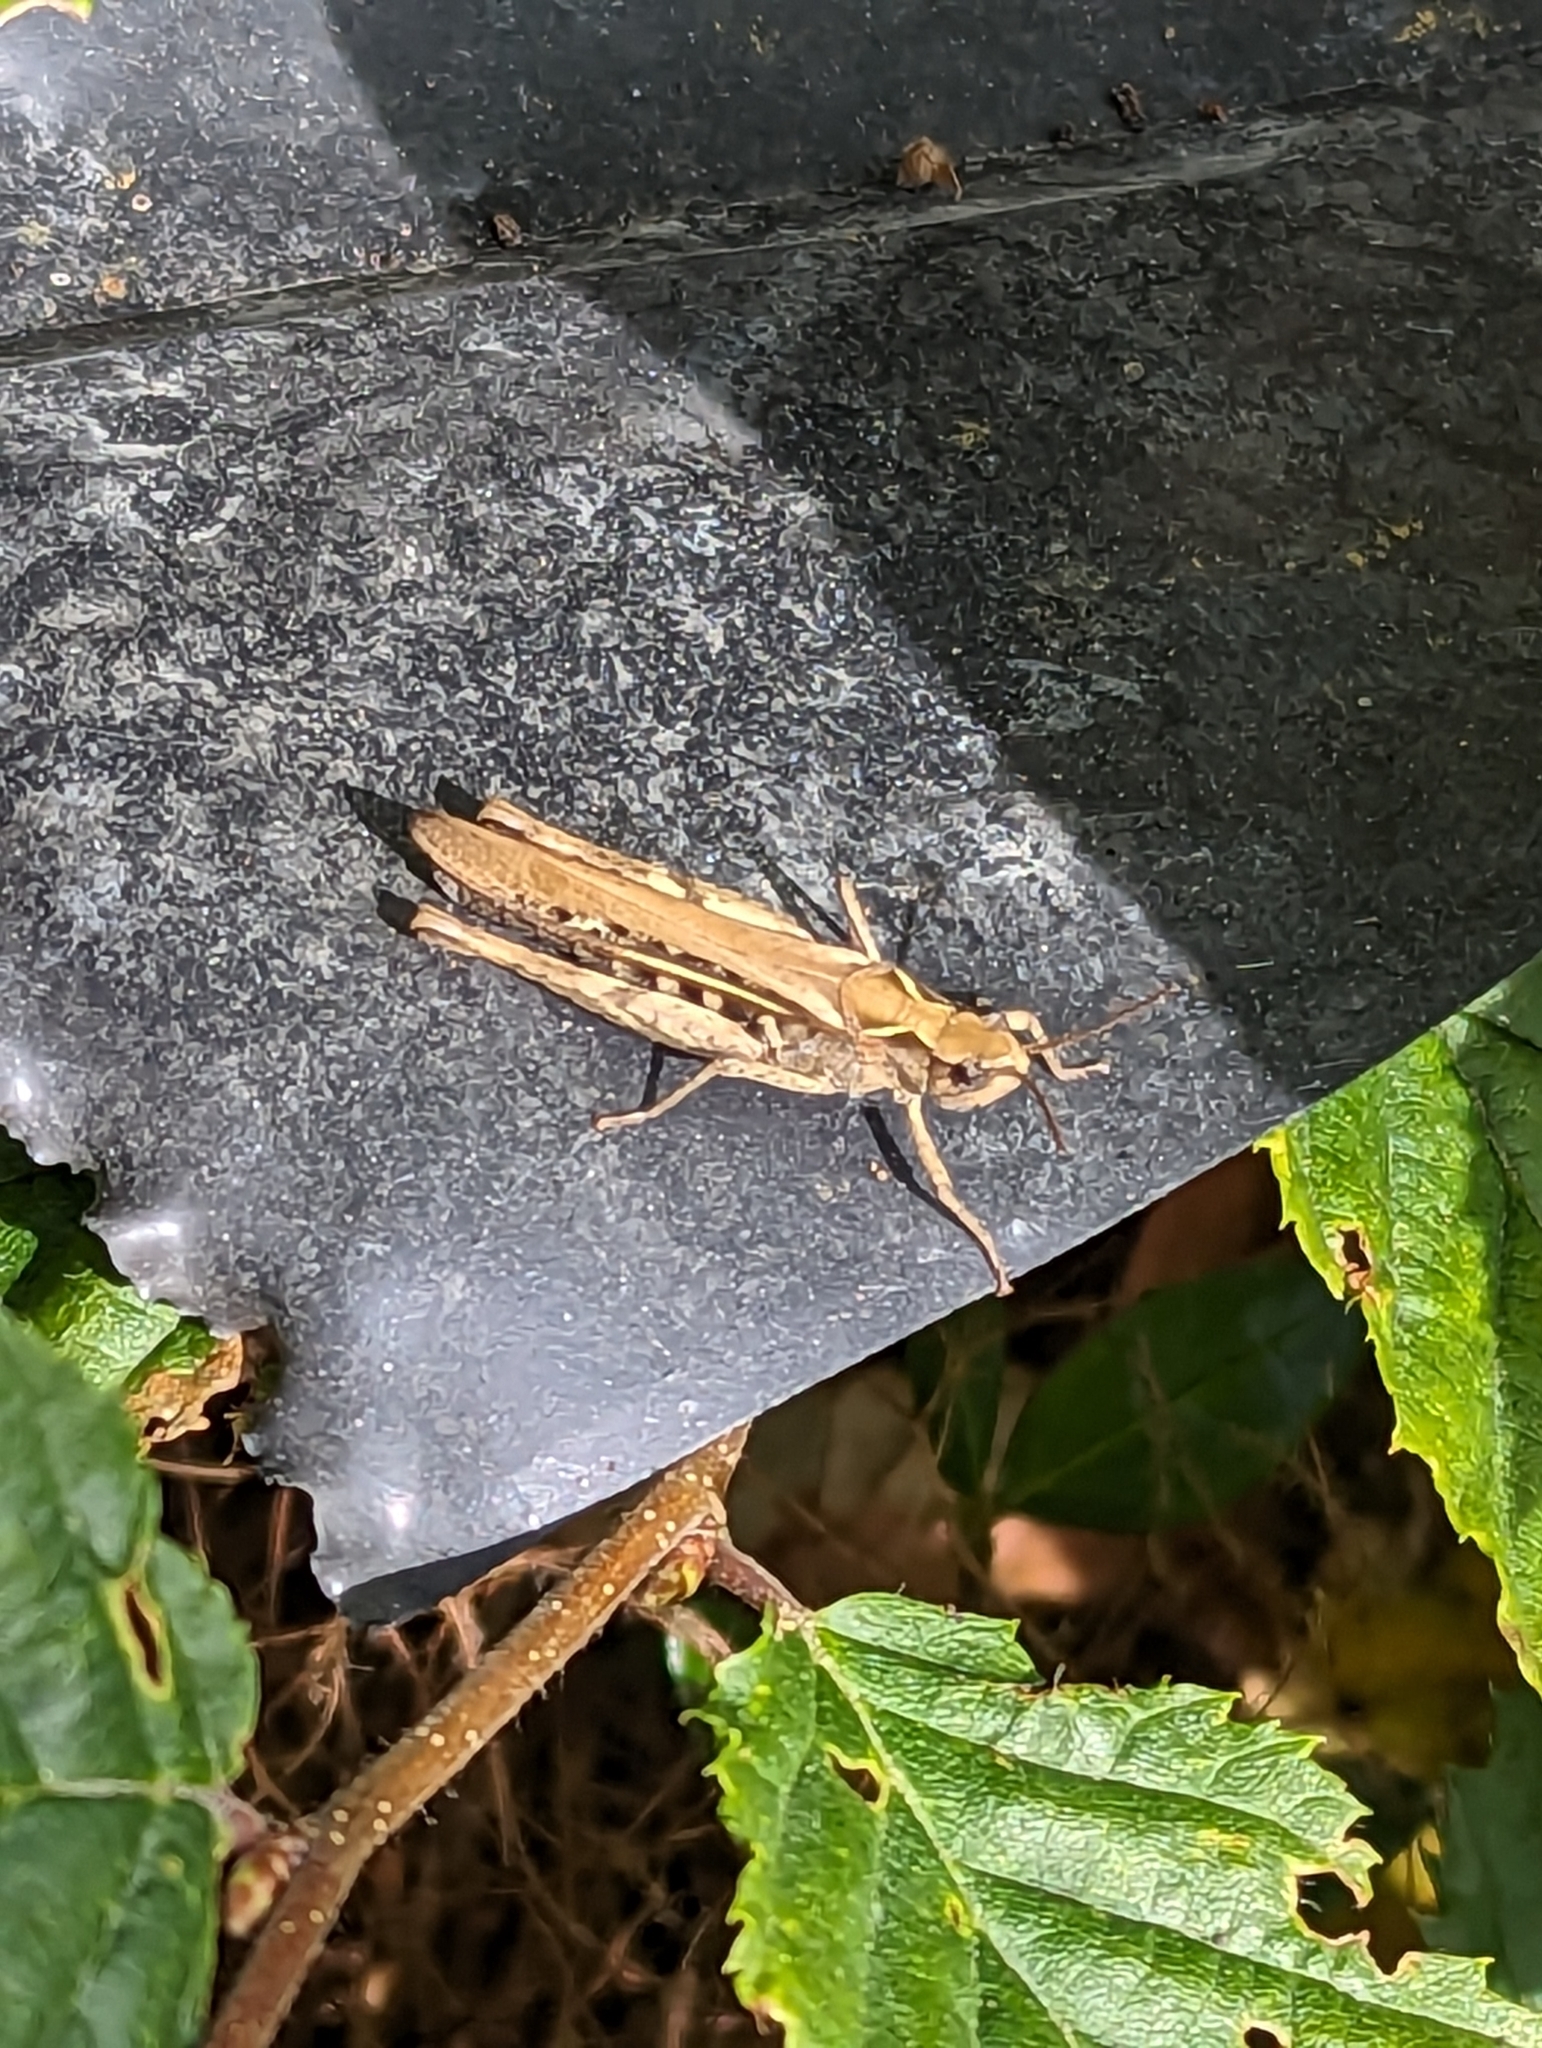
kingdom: Animalia
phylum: Arthropoda
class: Insecta
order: Orthoptera
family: Acrididae
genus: Chorthippus
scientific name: Chorthippus brunneus
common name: Field grasshopper
